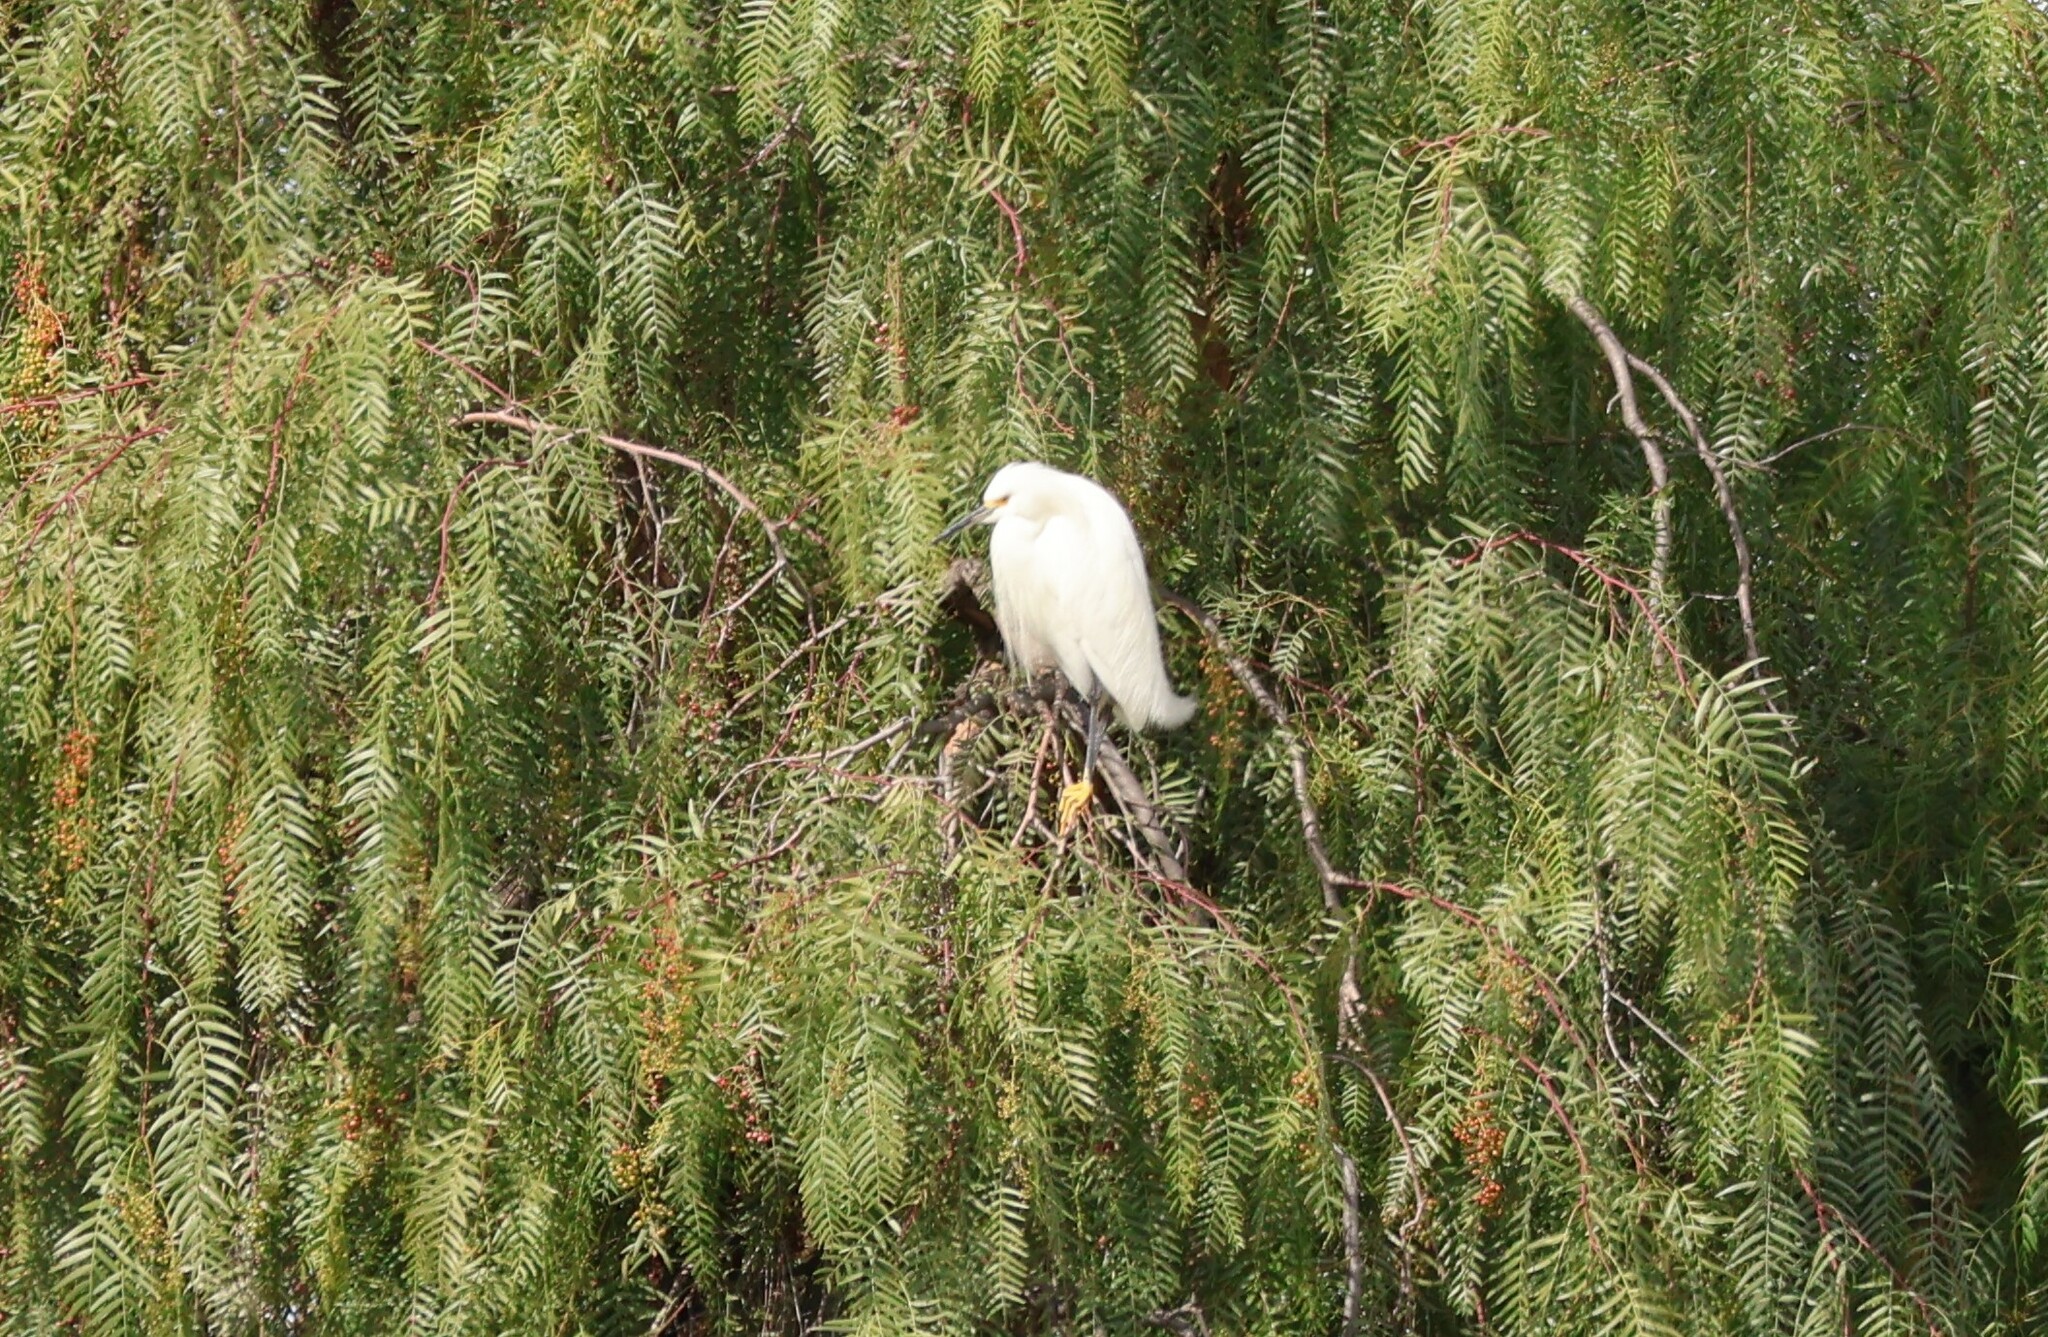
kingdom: Animalia
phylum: Chordata
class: Aves
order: Pelecaniformes
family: Ardeidae
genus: Egretta
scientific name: Egretta thula
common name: Snowy egret
